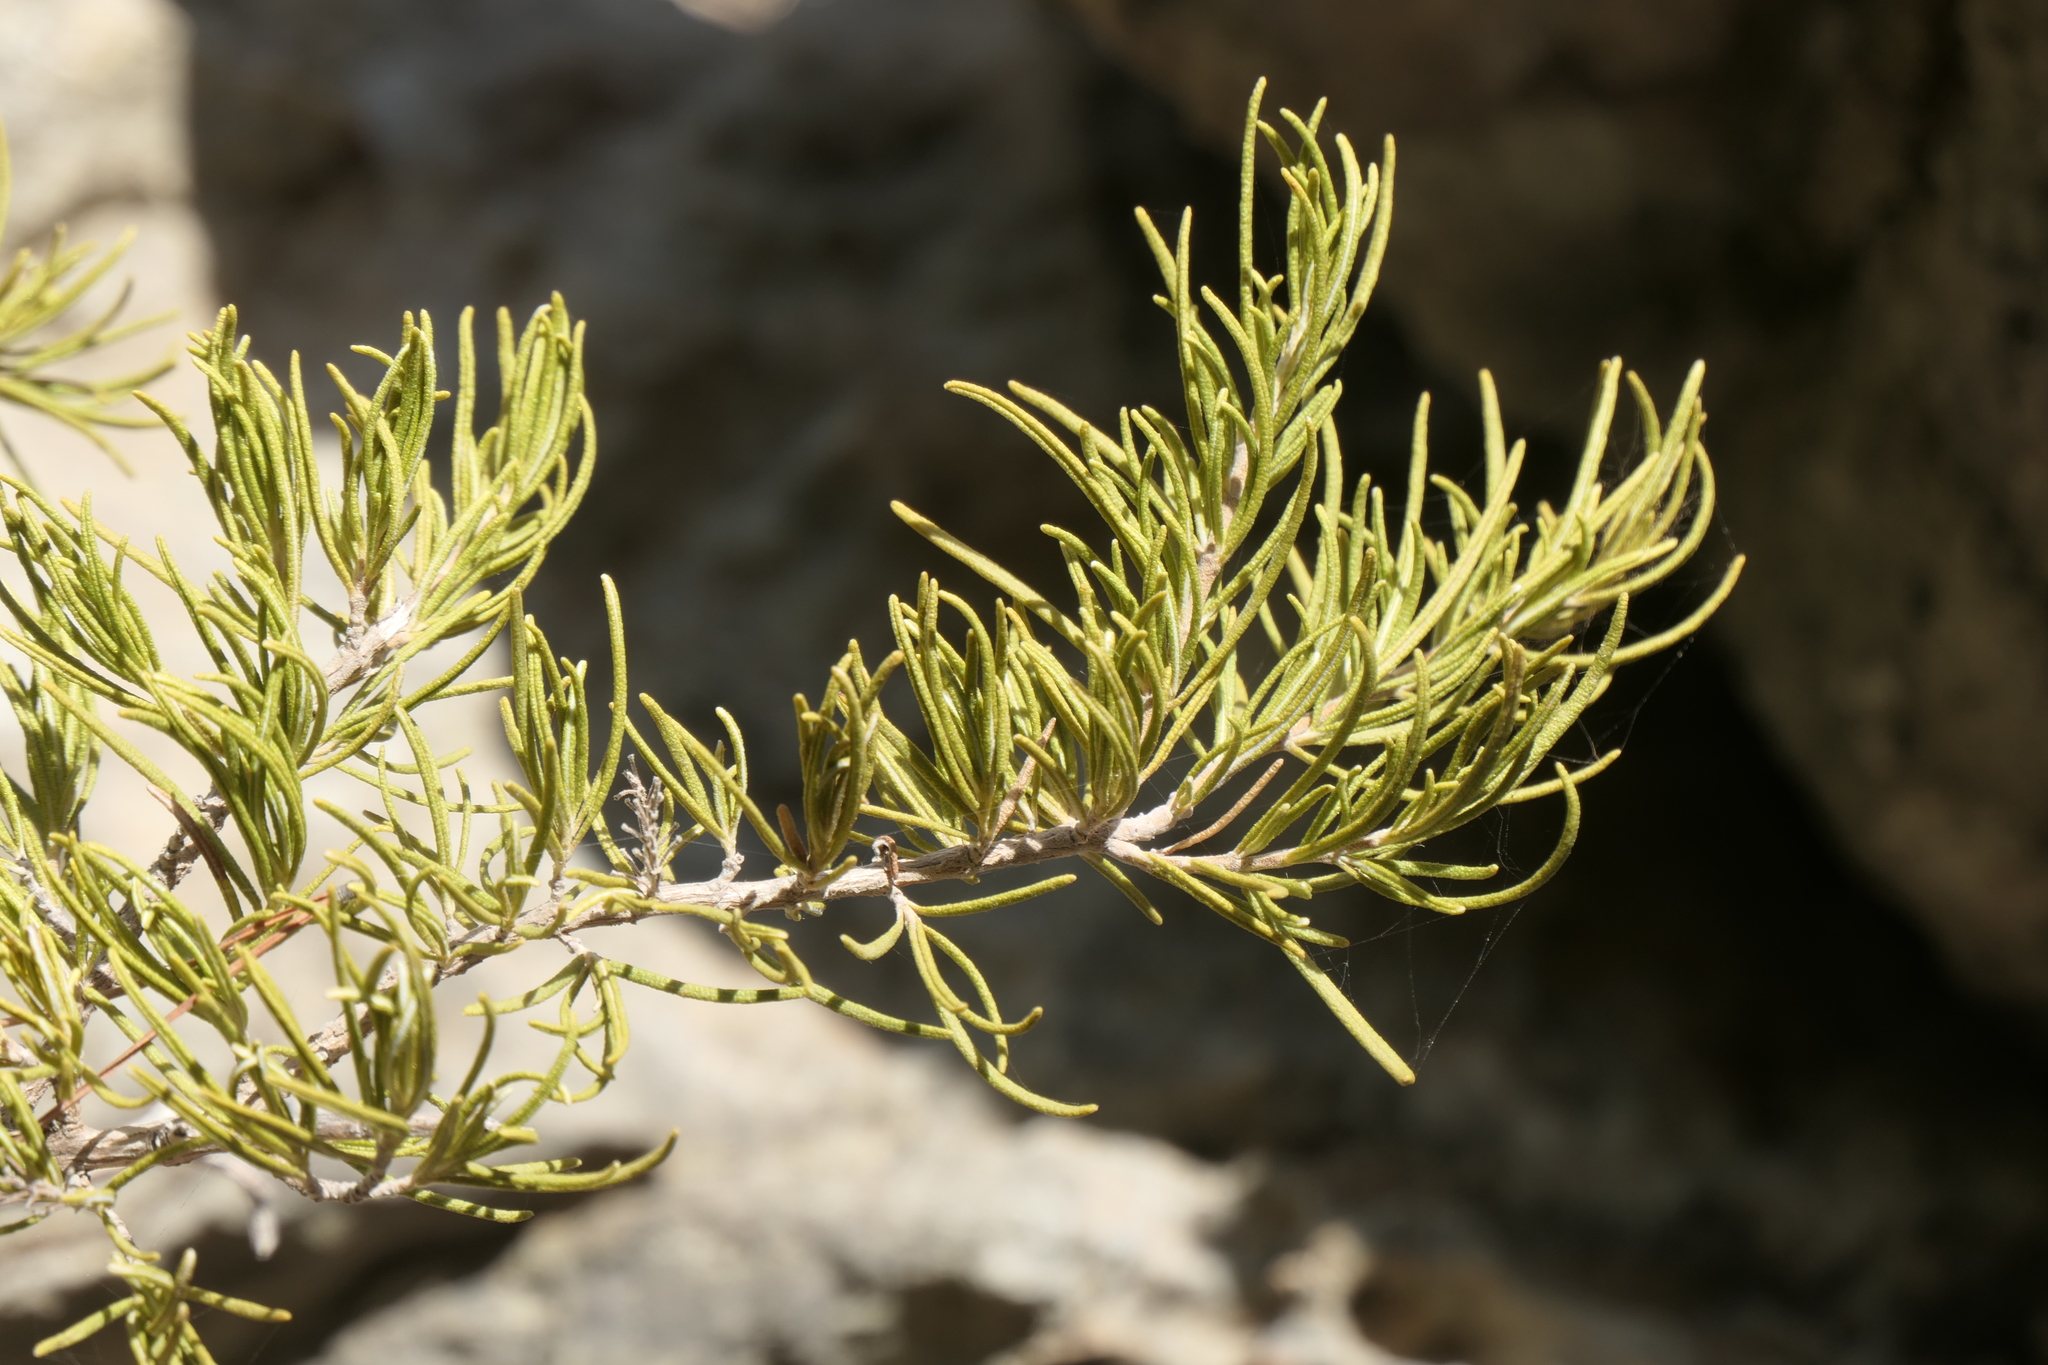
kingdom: Plantae
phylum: Tracheophyta
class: Magnoliopsida
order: Lamiales
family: Lamiaceae
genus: Salvia
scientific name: Salvia rosmarinus
